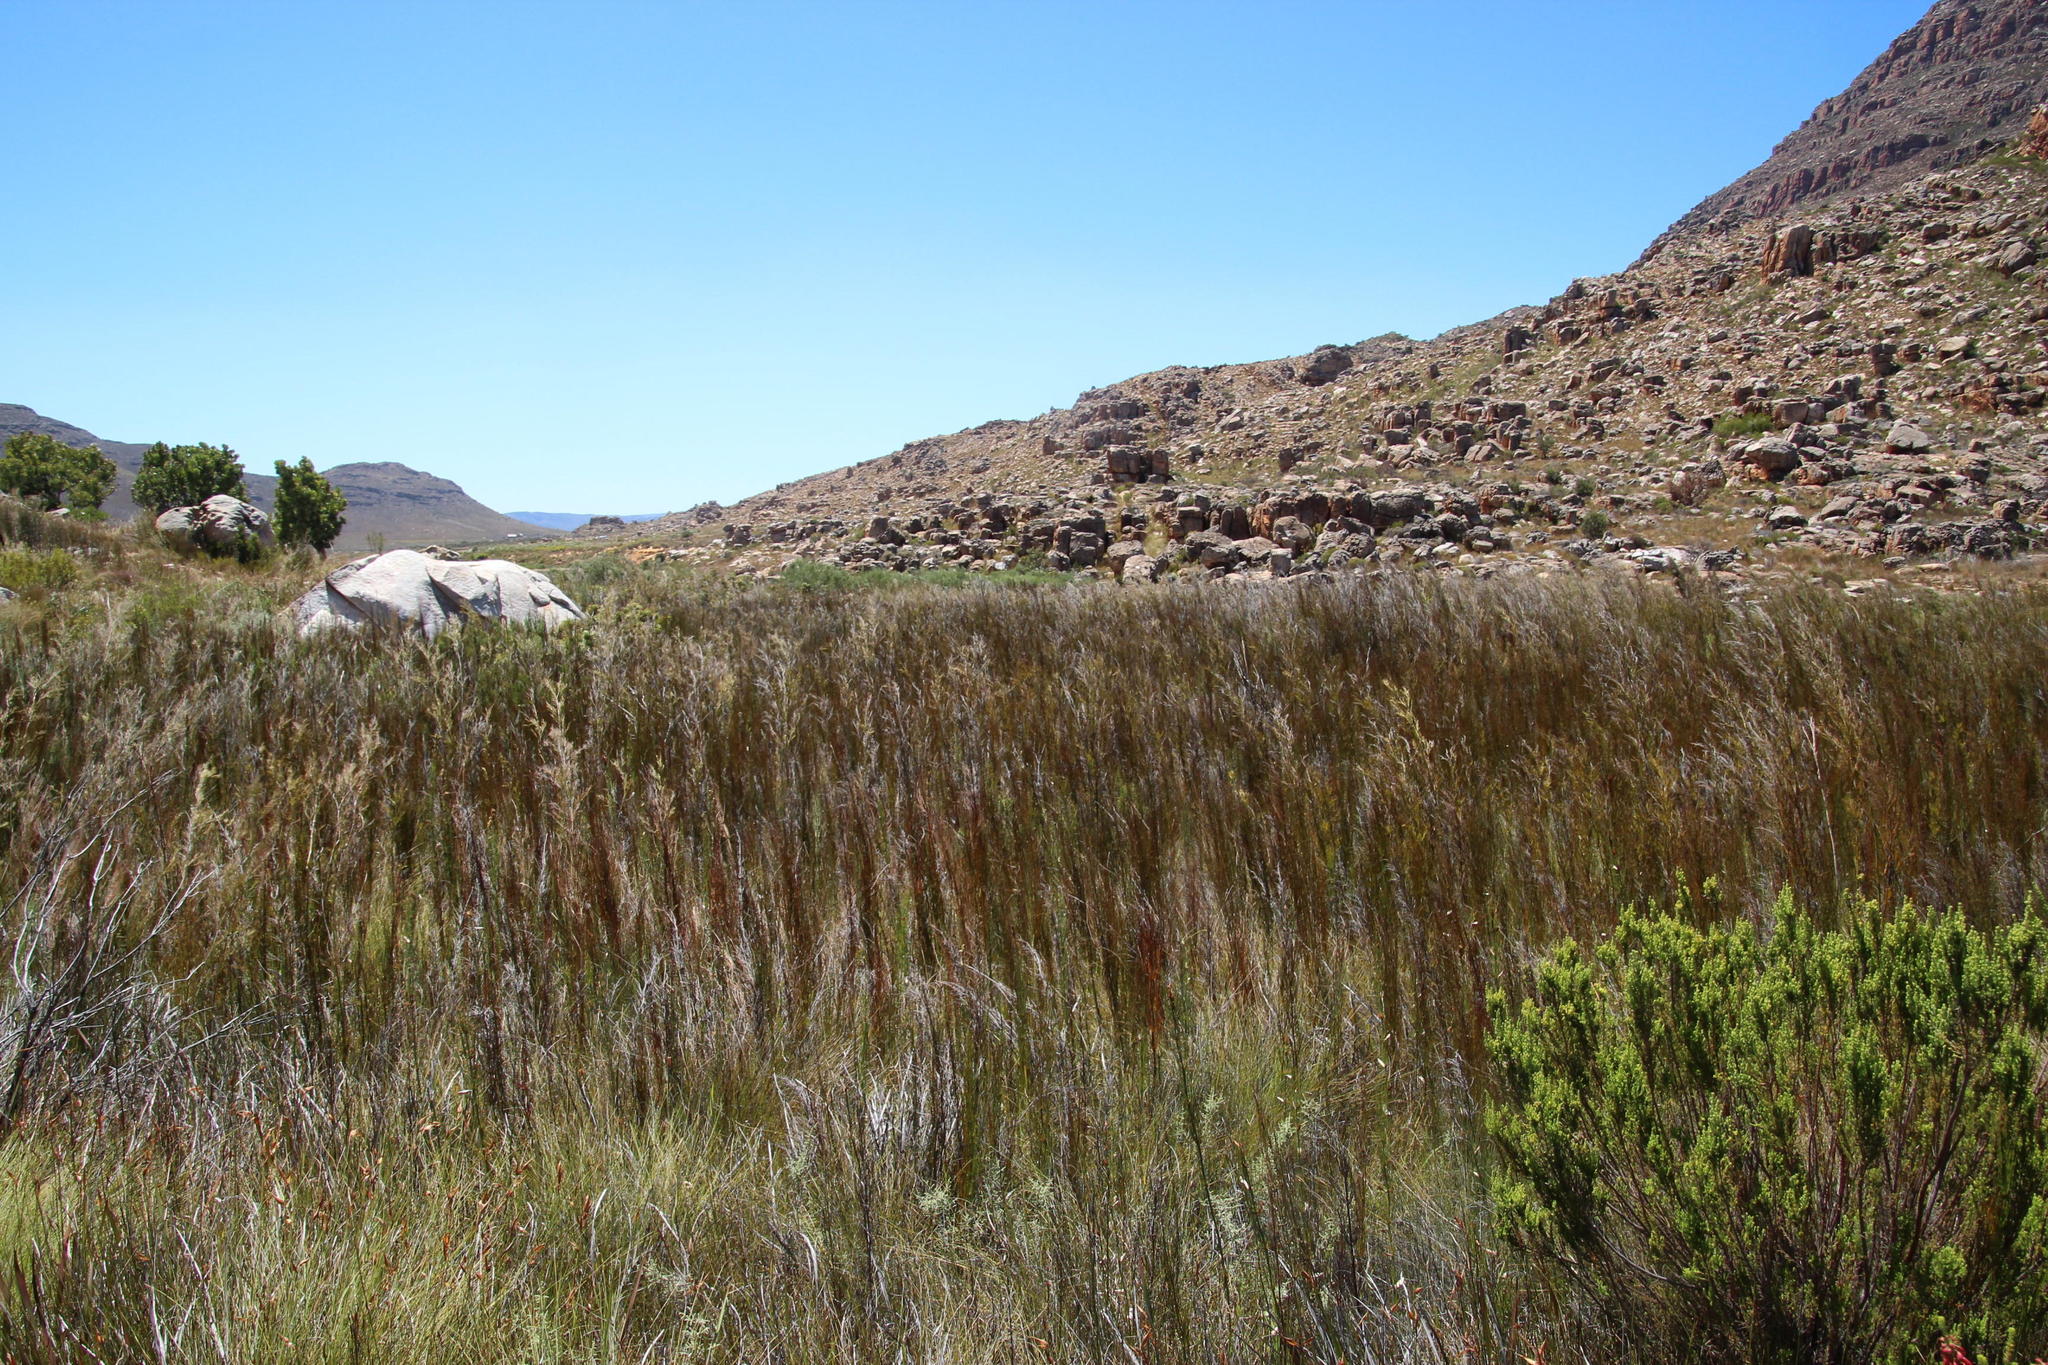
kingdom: Plantae
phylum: Tracheophyta
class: Liliopsida
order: Poales
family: Restionaceae
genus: Rhodocoma
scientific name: Rhodocoma capensis
